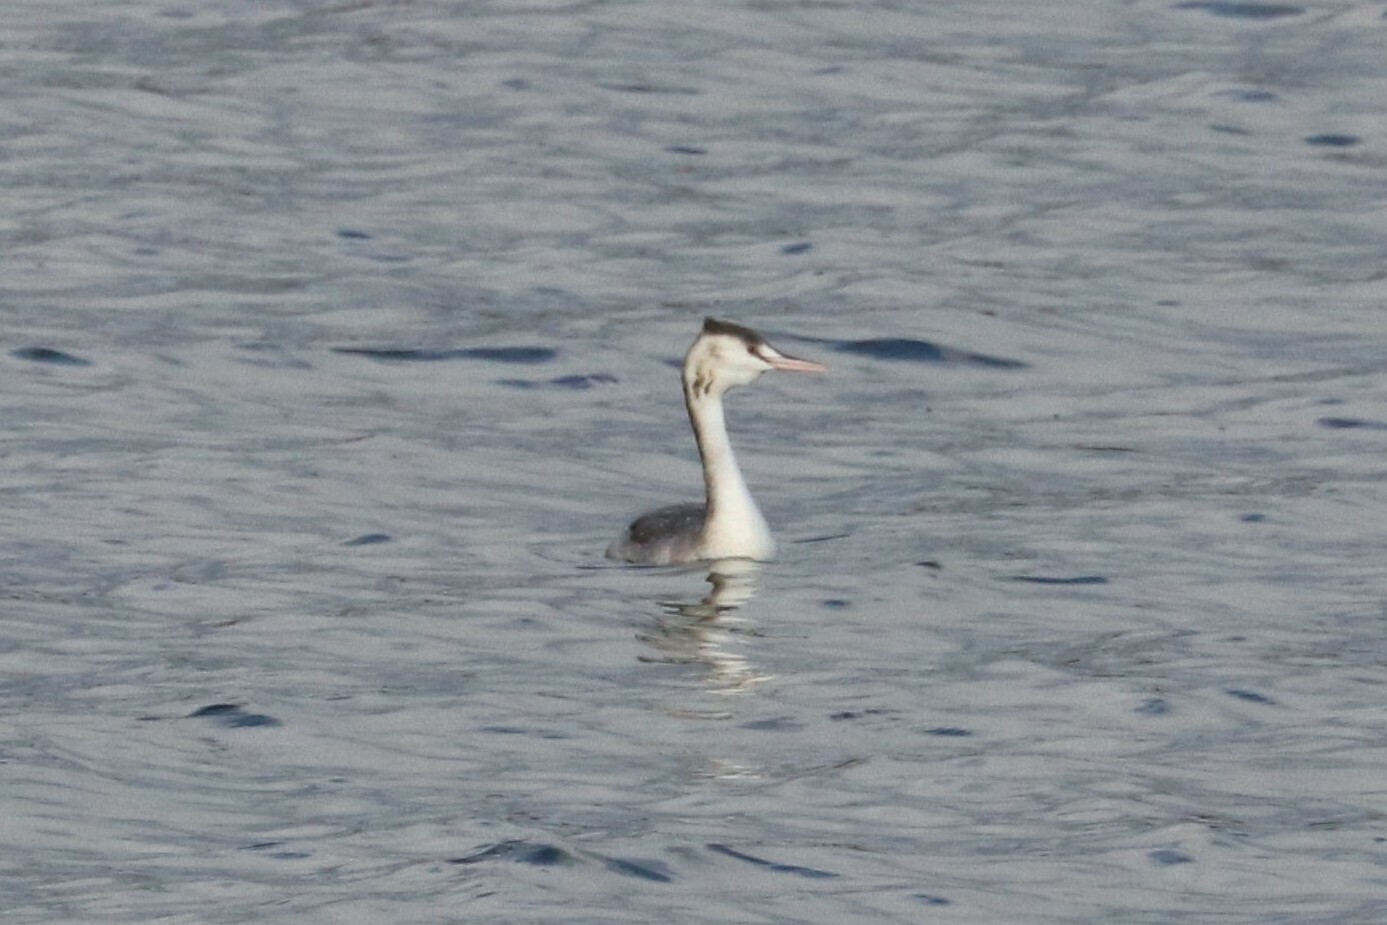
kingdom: Animalia
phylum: Chordata
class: Aves
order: Podicipediformes
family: Podicipedidae
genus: Podiceps
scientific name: Podiceps cristatus
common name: Great crested grebe
